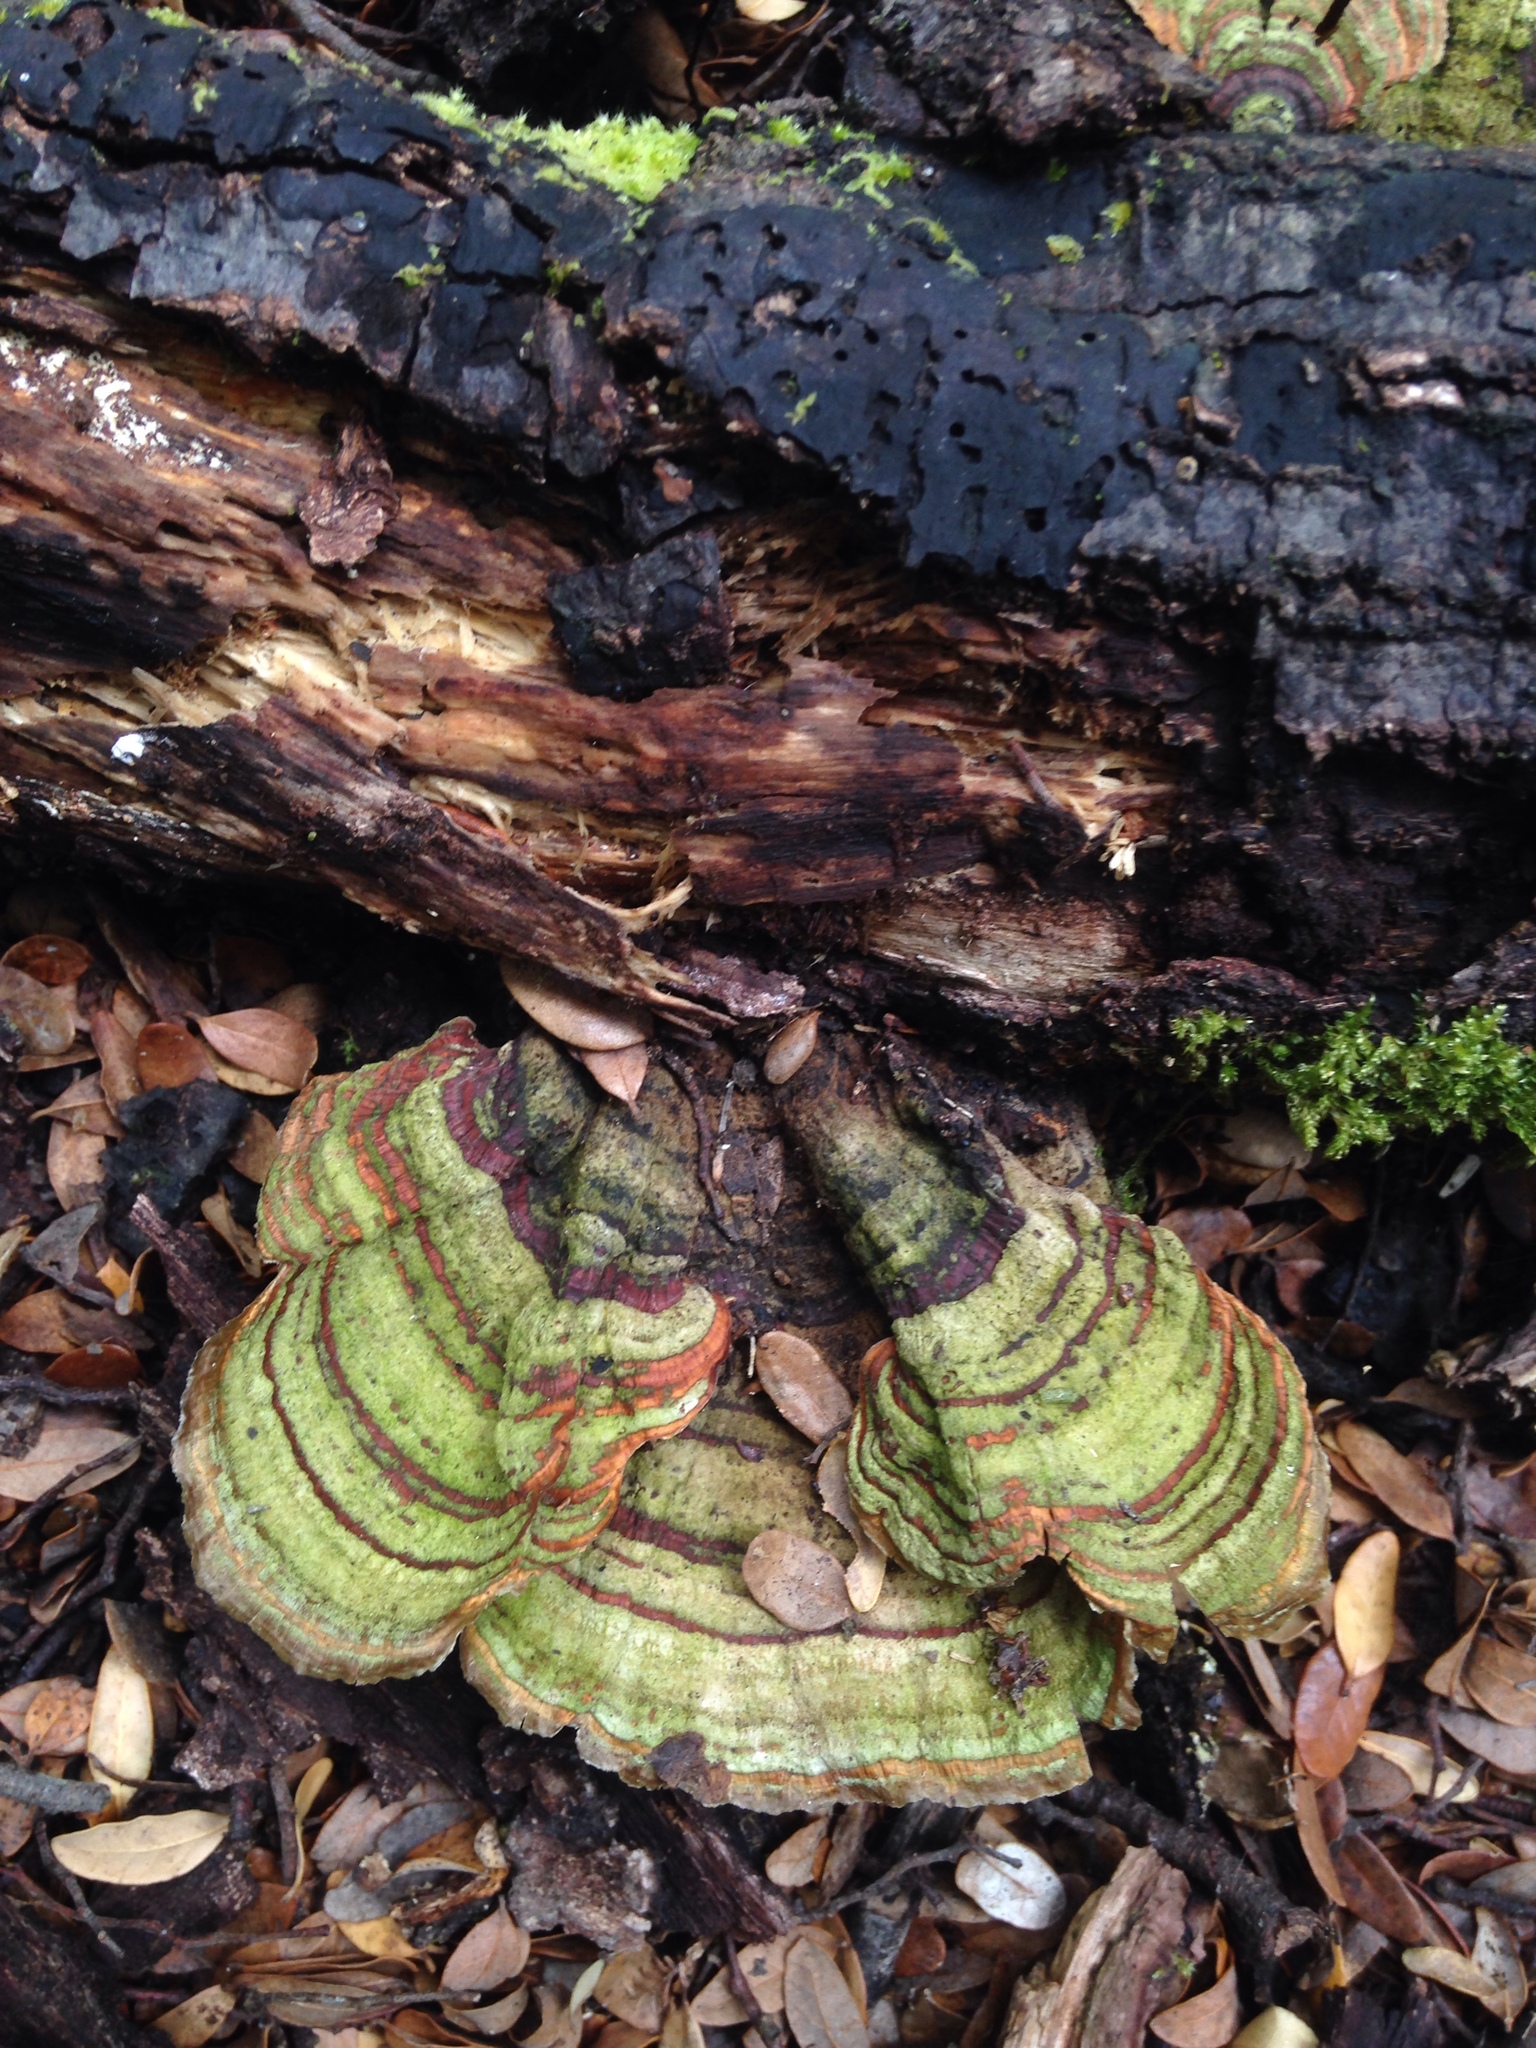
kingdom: Fungi
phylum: Basidiomycota
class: Agaricomycetes
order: Russulales
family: Stereaceae
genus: Stereum
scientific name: Stereum versicolor
